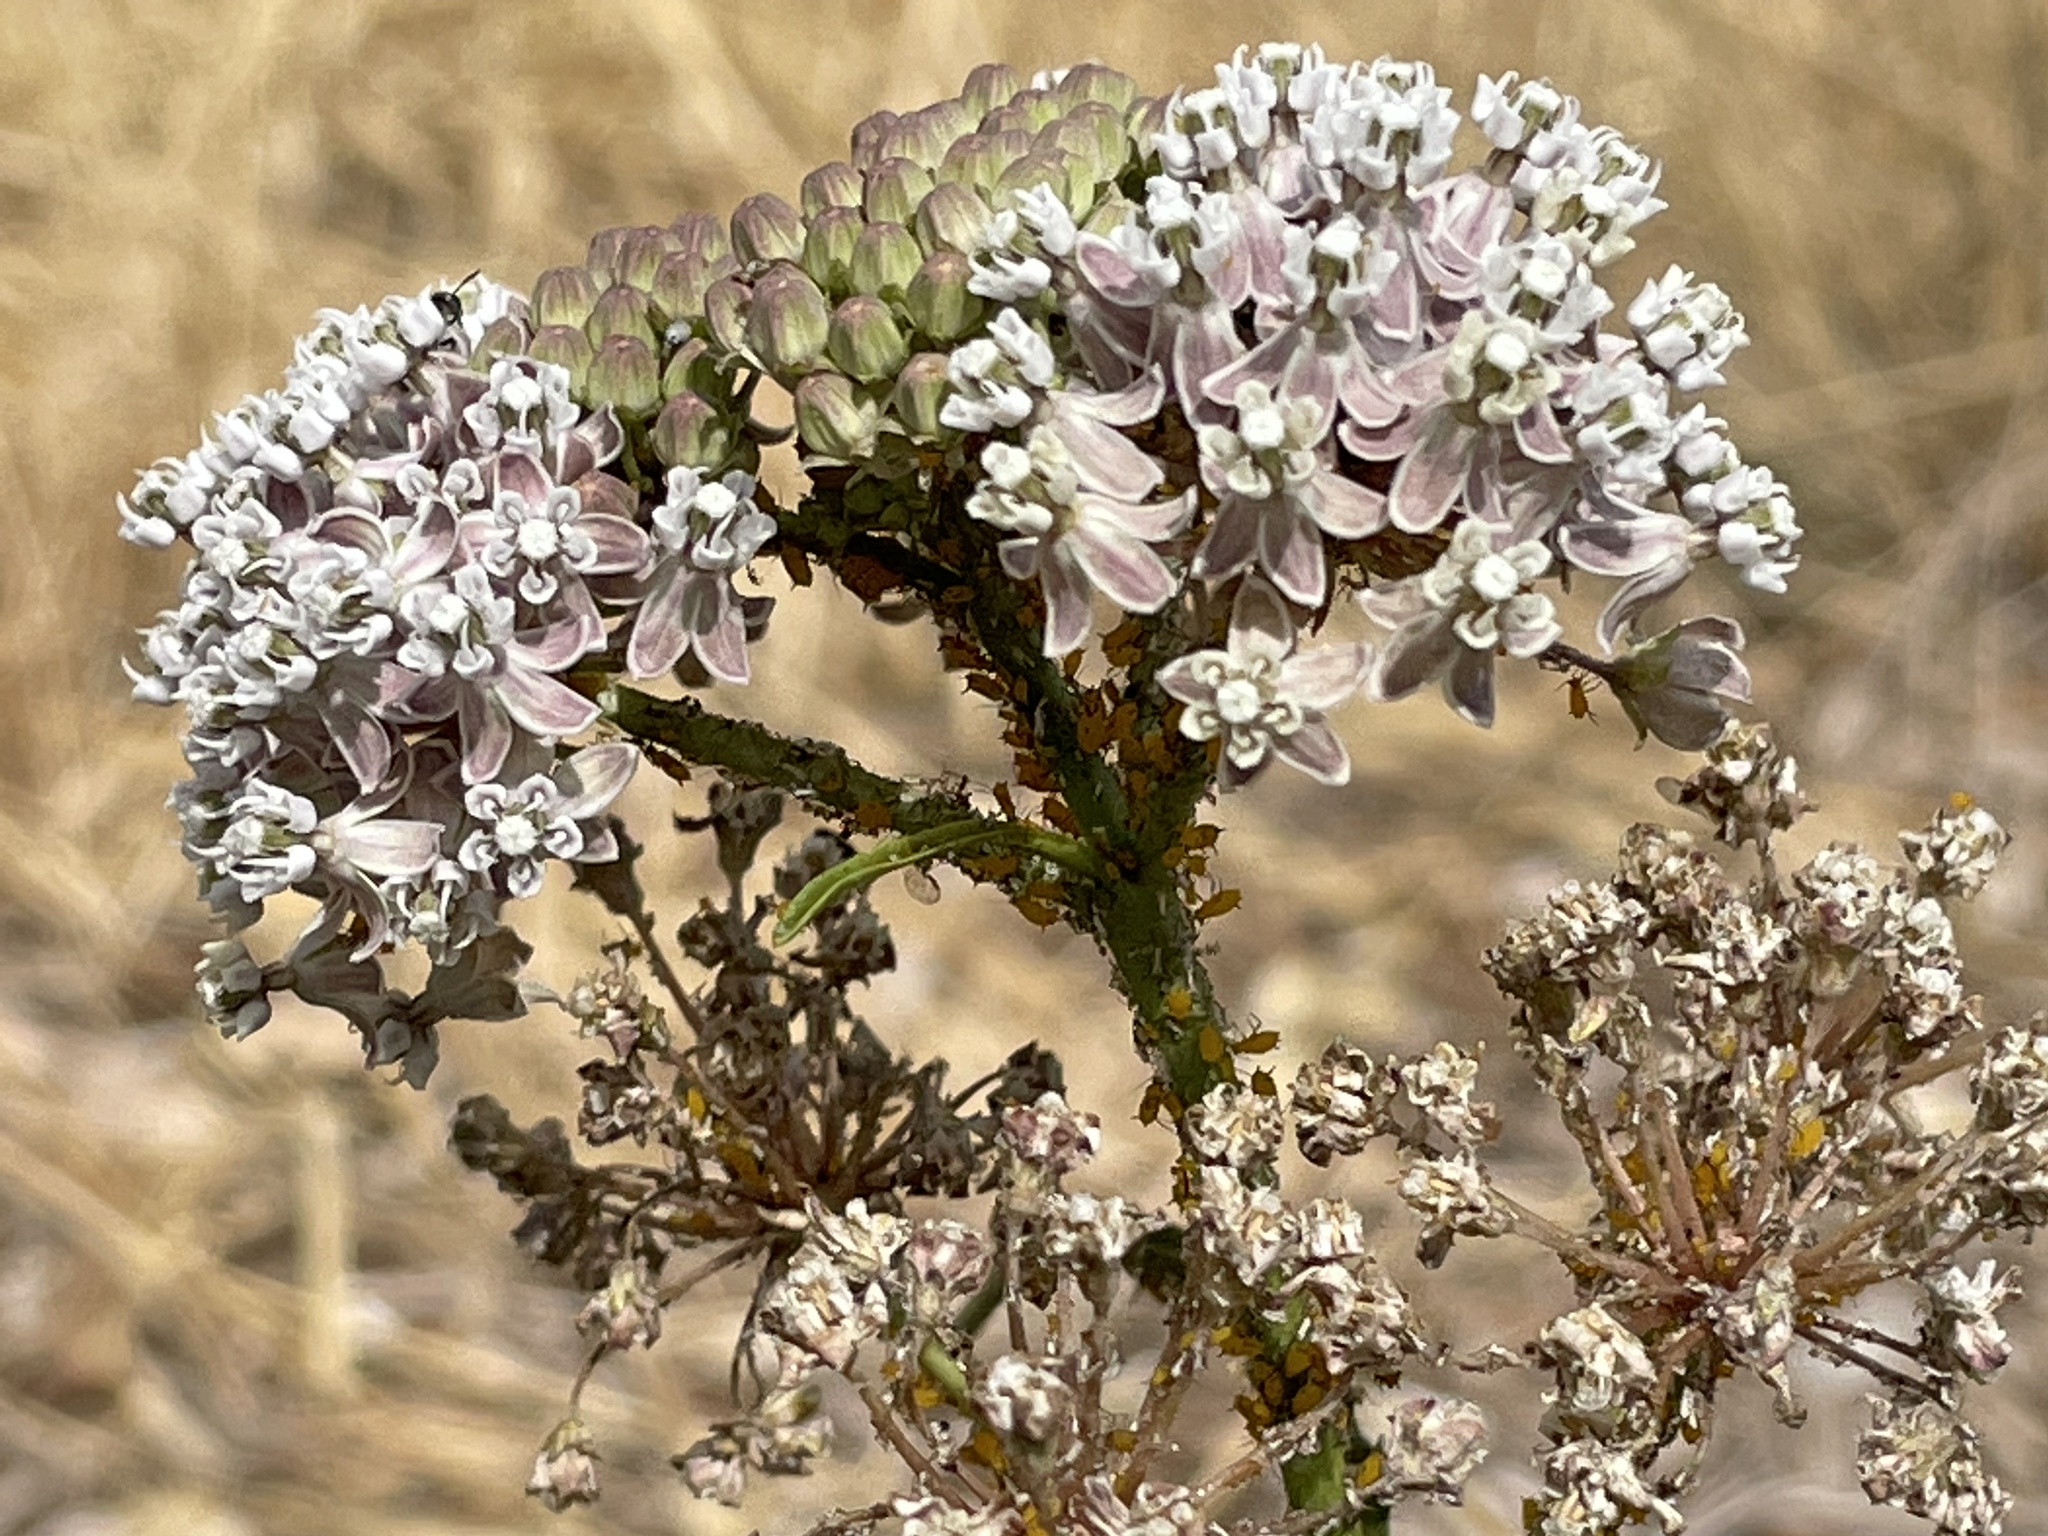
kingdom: Plantae
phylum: Tracheophyta
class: Magnoliopsida
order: Gentianales
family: Apocynaceae
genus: Asclepias
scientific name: Asclepias fascicularis
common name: Mexican milkweed
